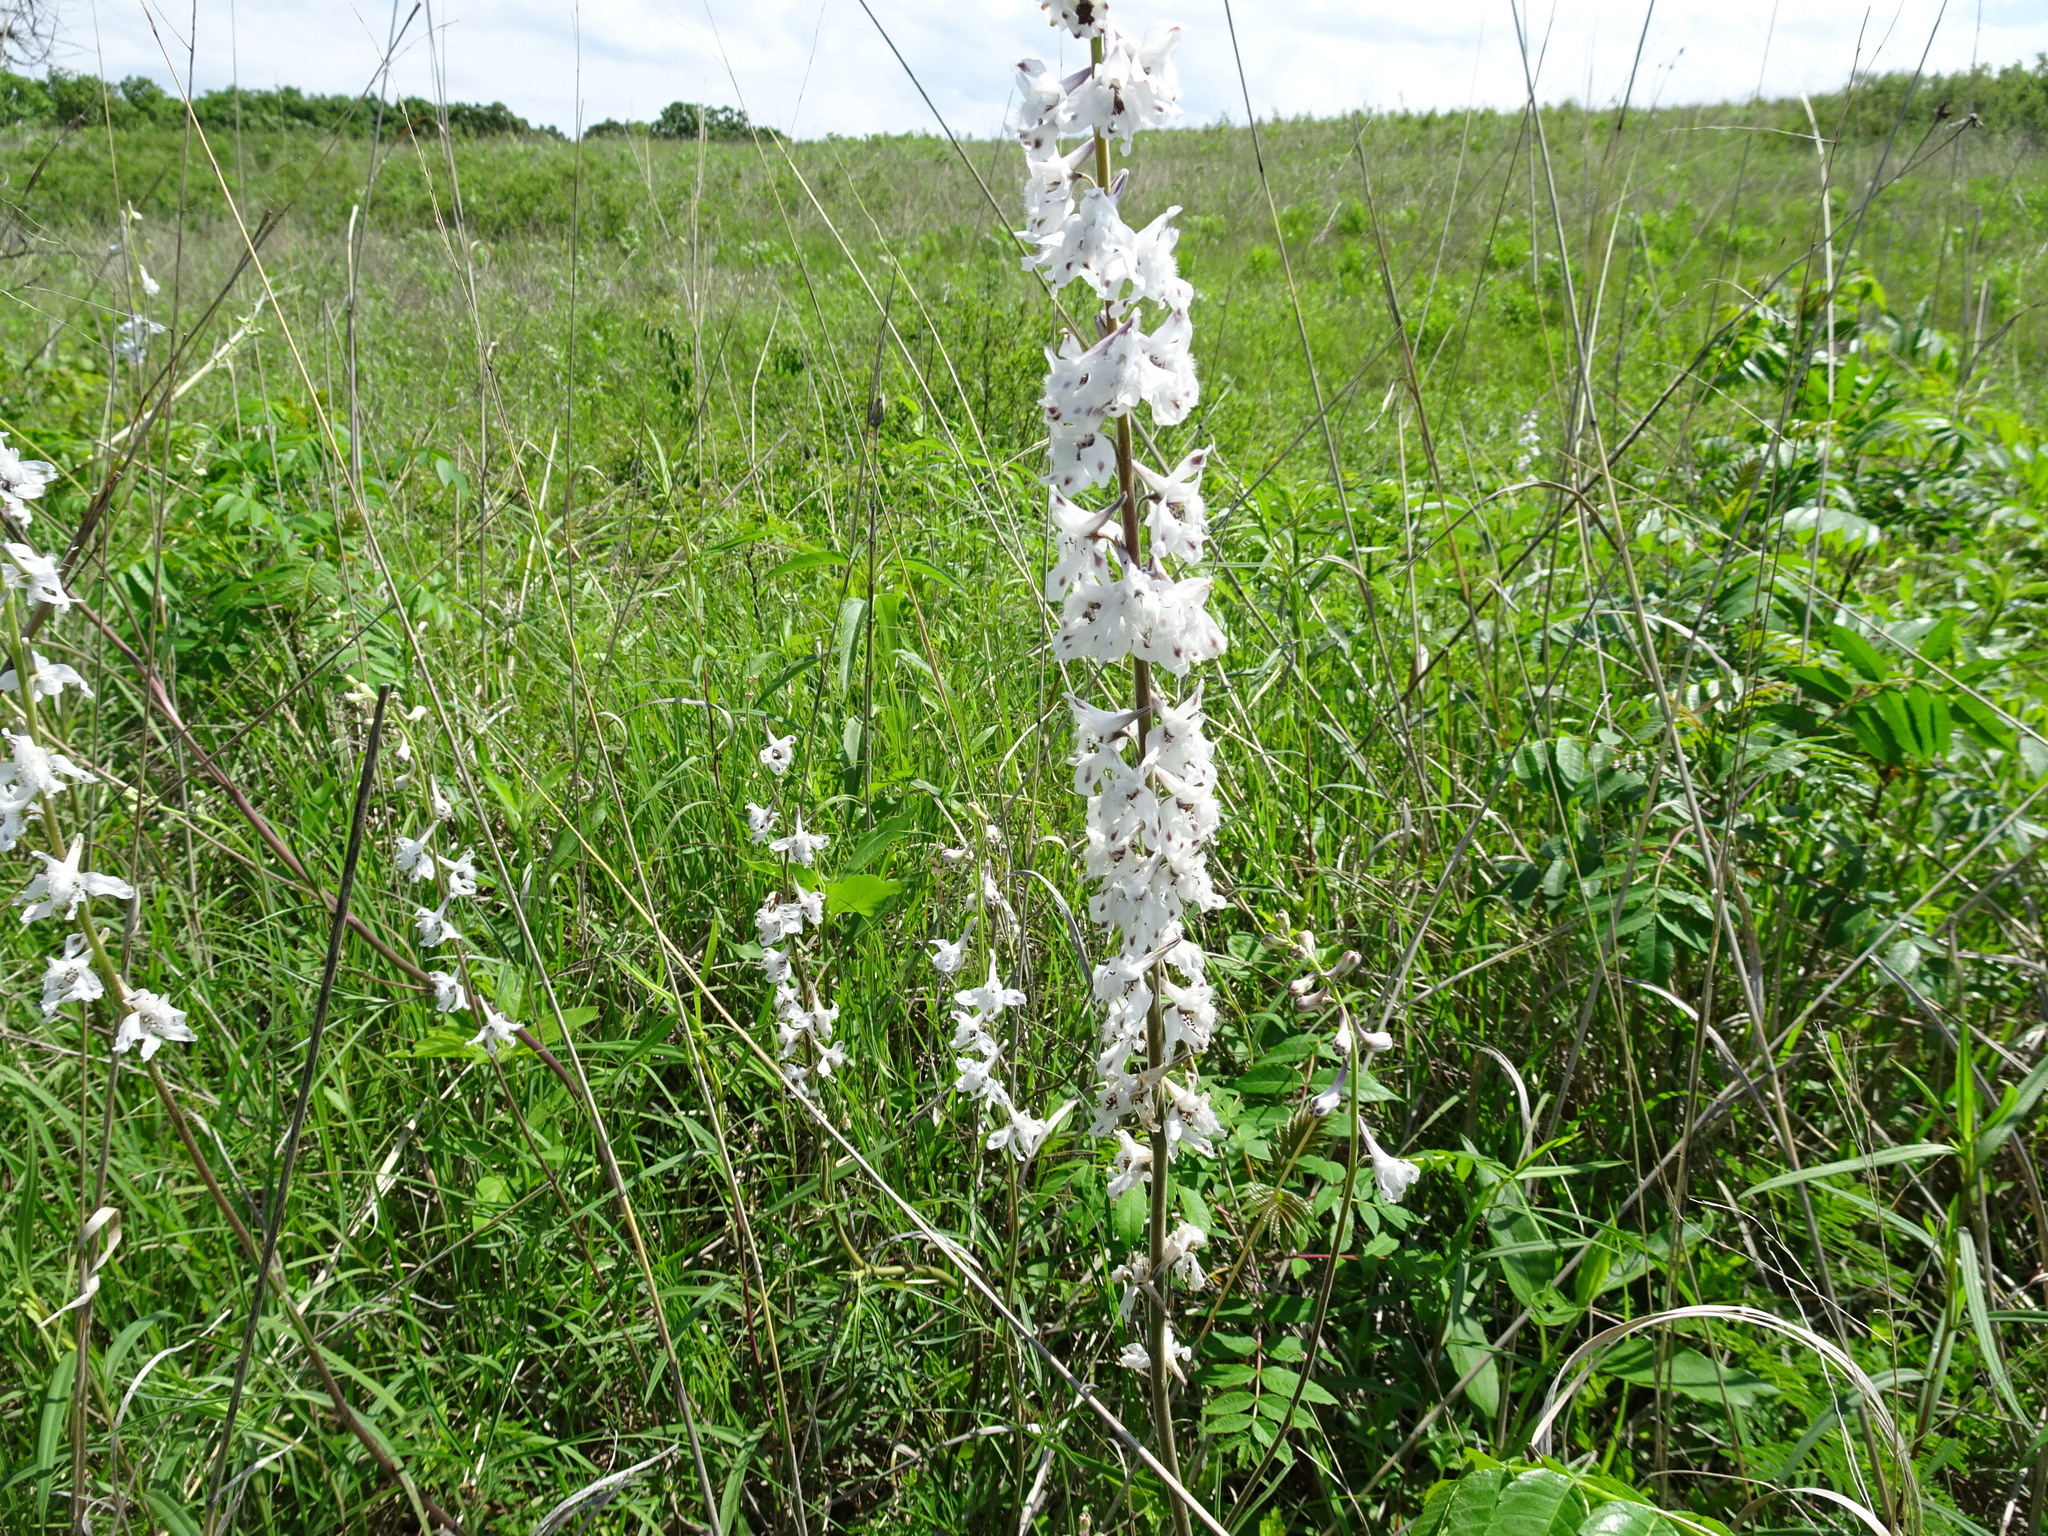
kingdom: Plantae
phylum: Tracheophyta
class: Magnoliopsida
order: Ranunculales
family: Ranunculaceae
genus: Delphinium
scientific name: Delphinium carolinianum
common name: Carolina larkspur
